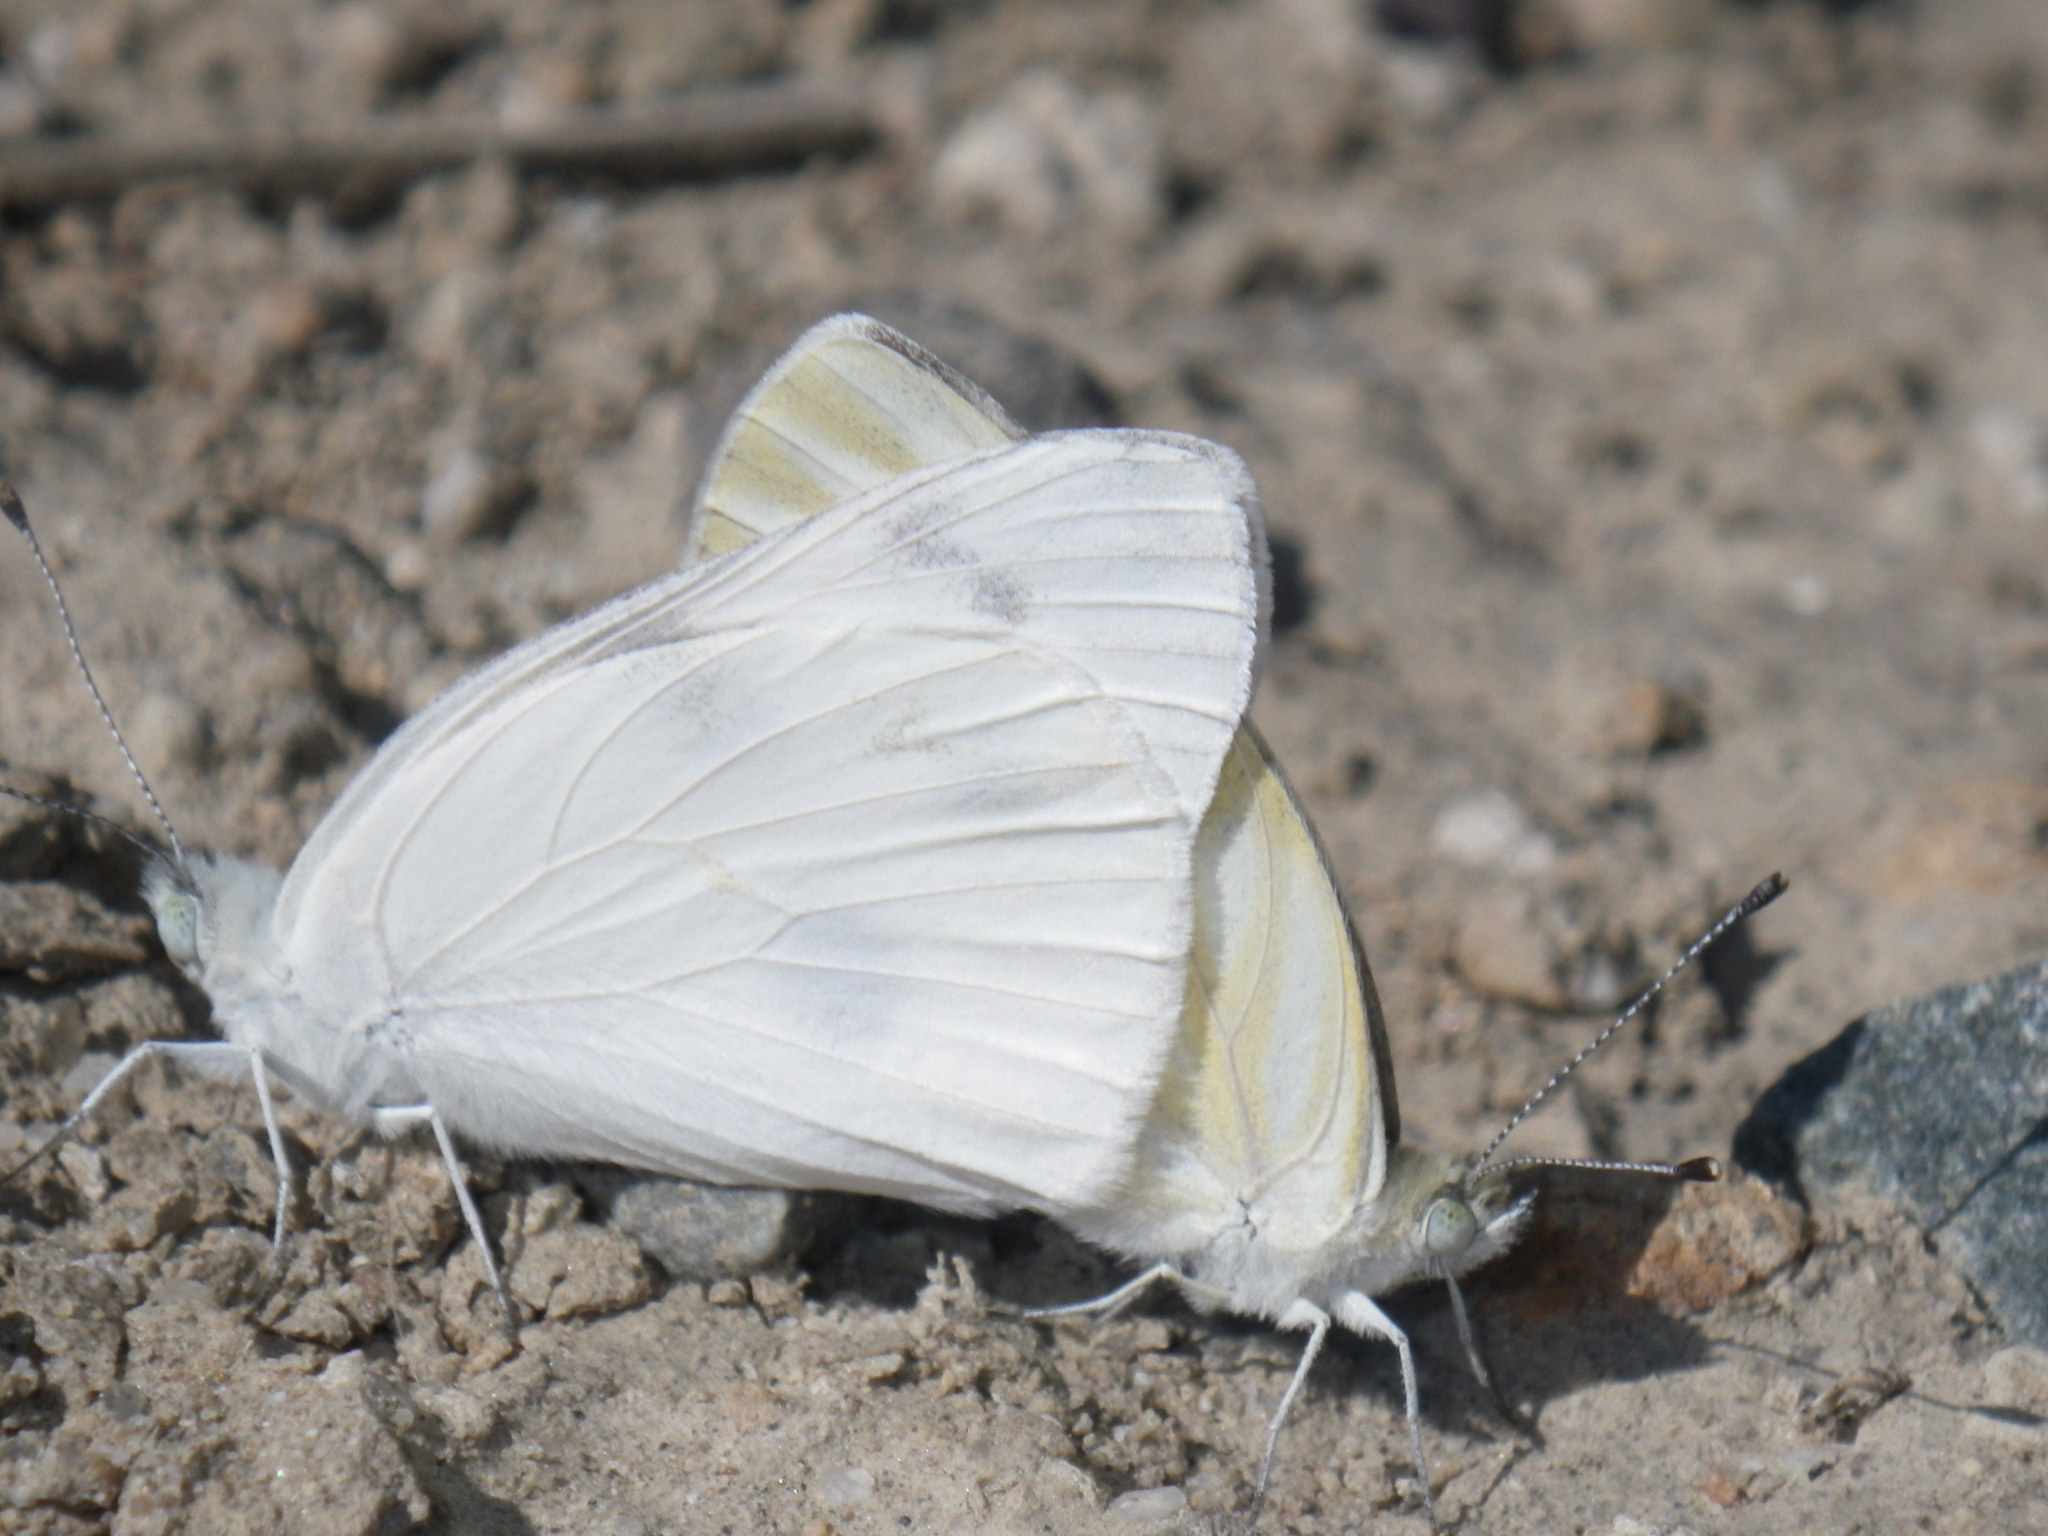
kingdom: Animalia
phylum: Arthropoda
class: Insecta
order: Lepidoptera
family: Pieridae
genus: Pieris
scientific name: Pieris rapae
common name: Small white
